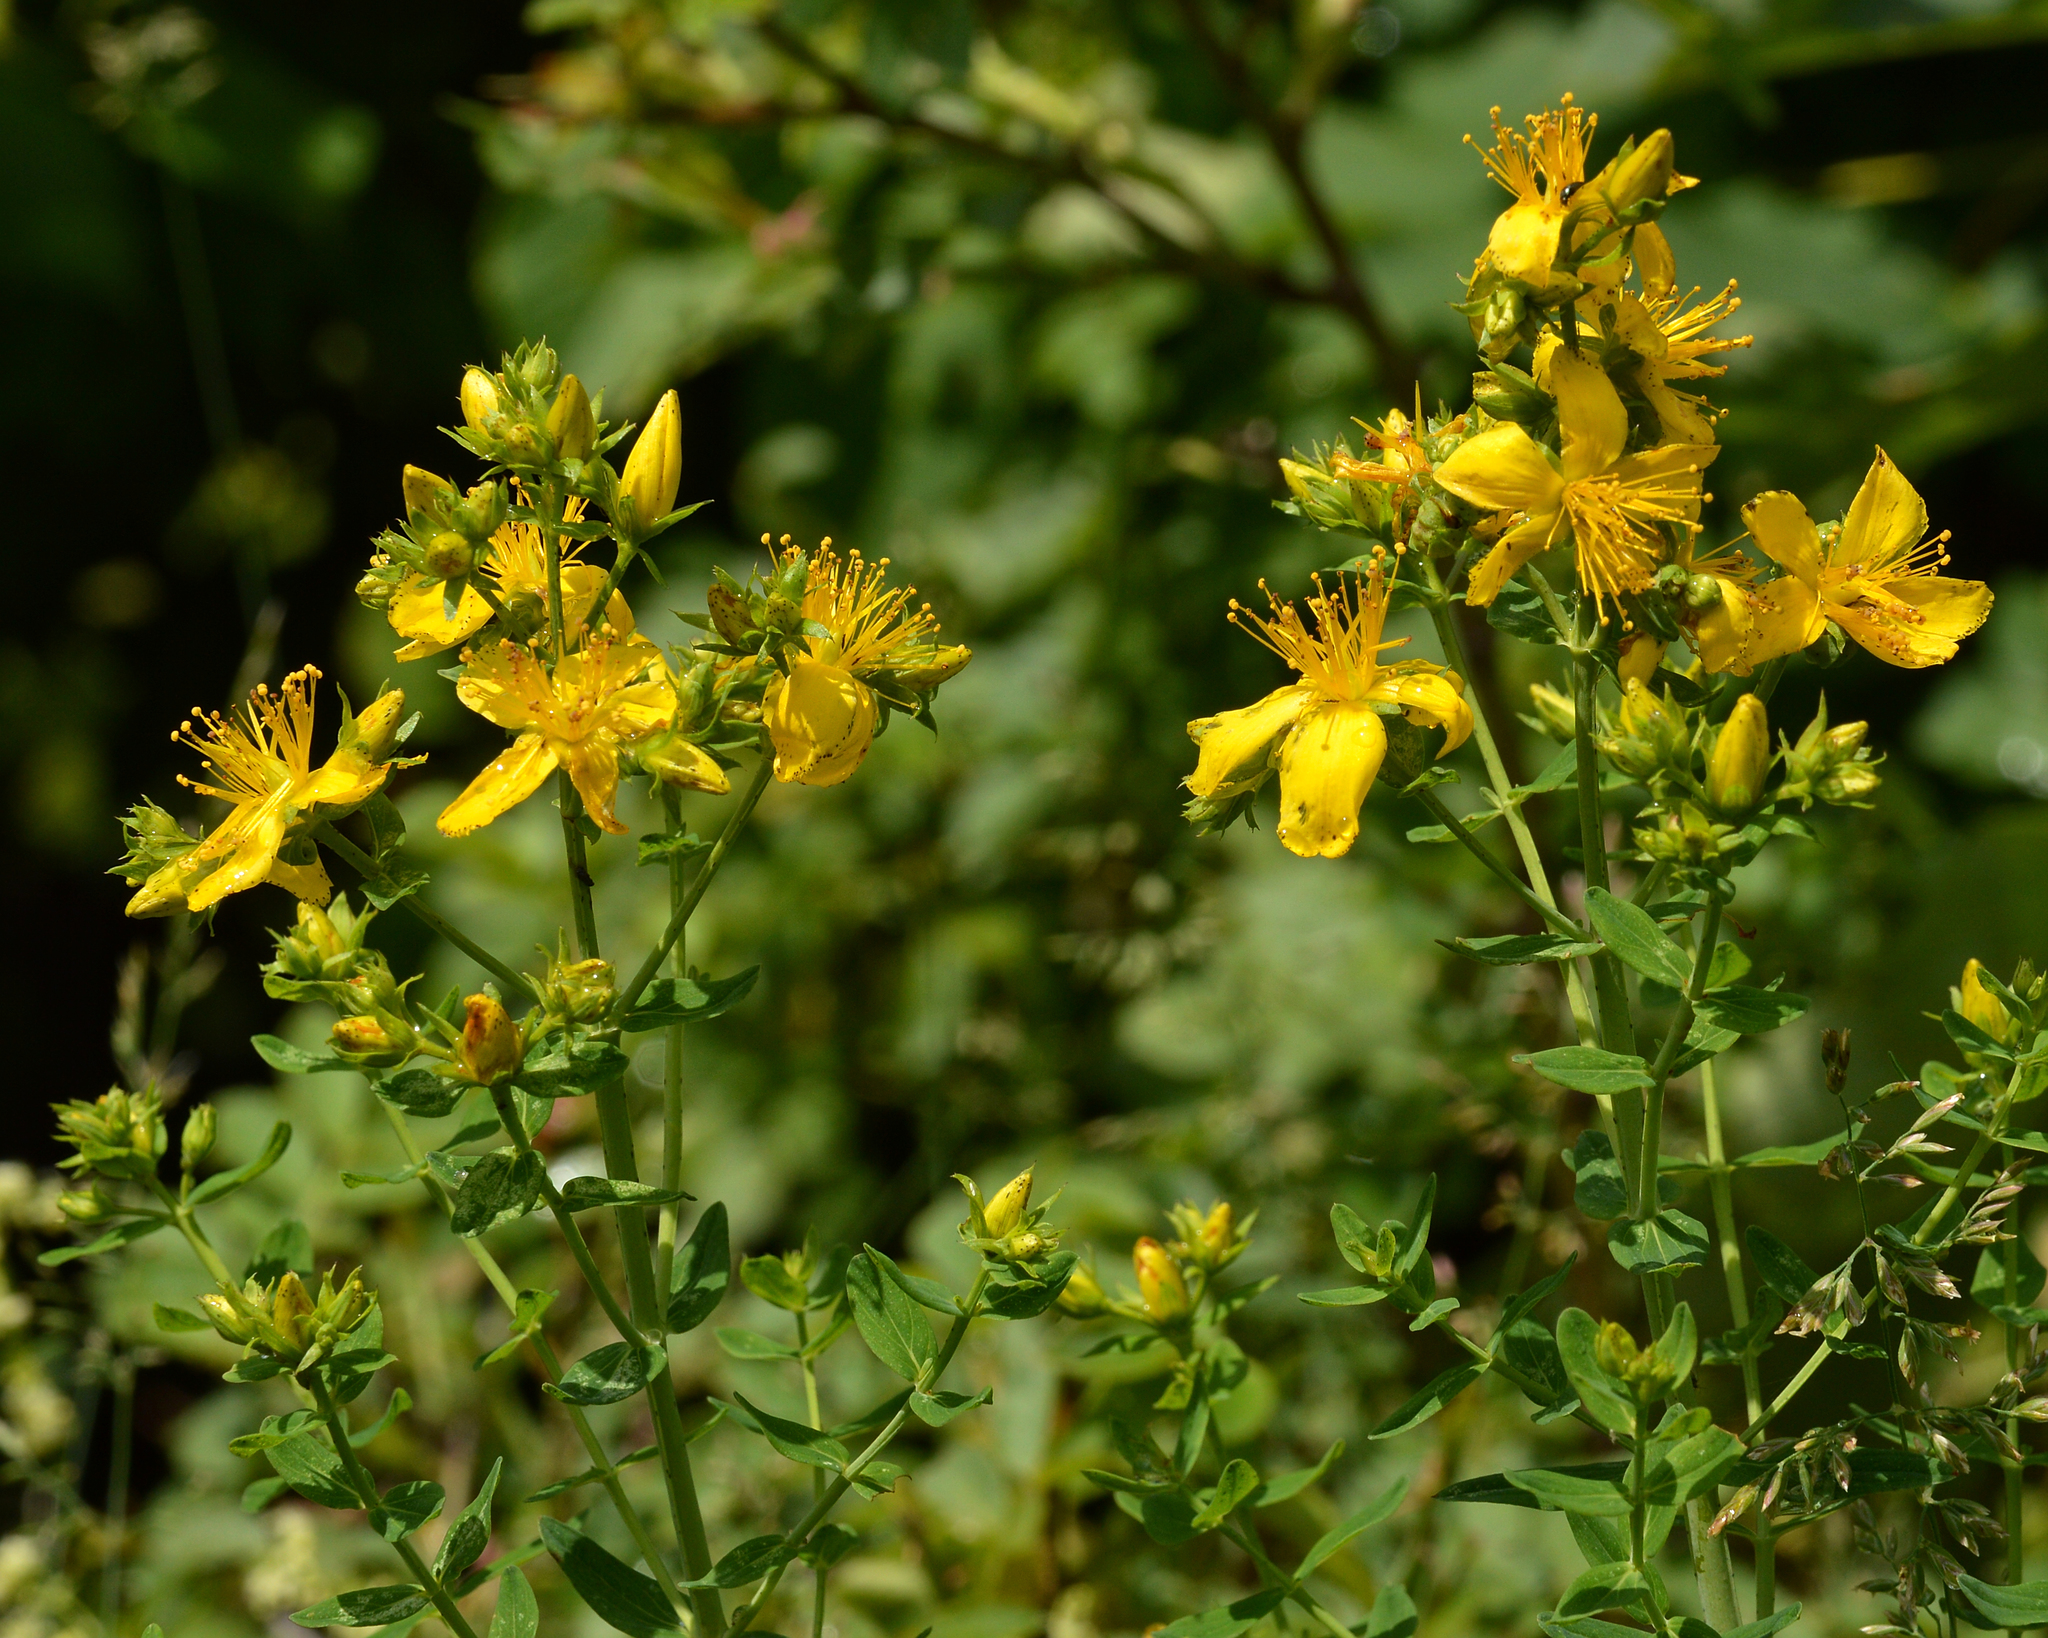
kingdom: Plantae
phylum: Tracheophyta
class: Magnoliopsida
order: Malpighiales
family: Hypericaceae
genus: Hypericum
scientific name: Hypericum perforatum
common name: Common st. johnswort
